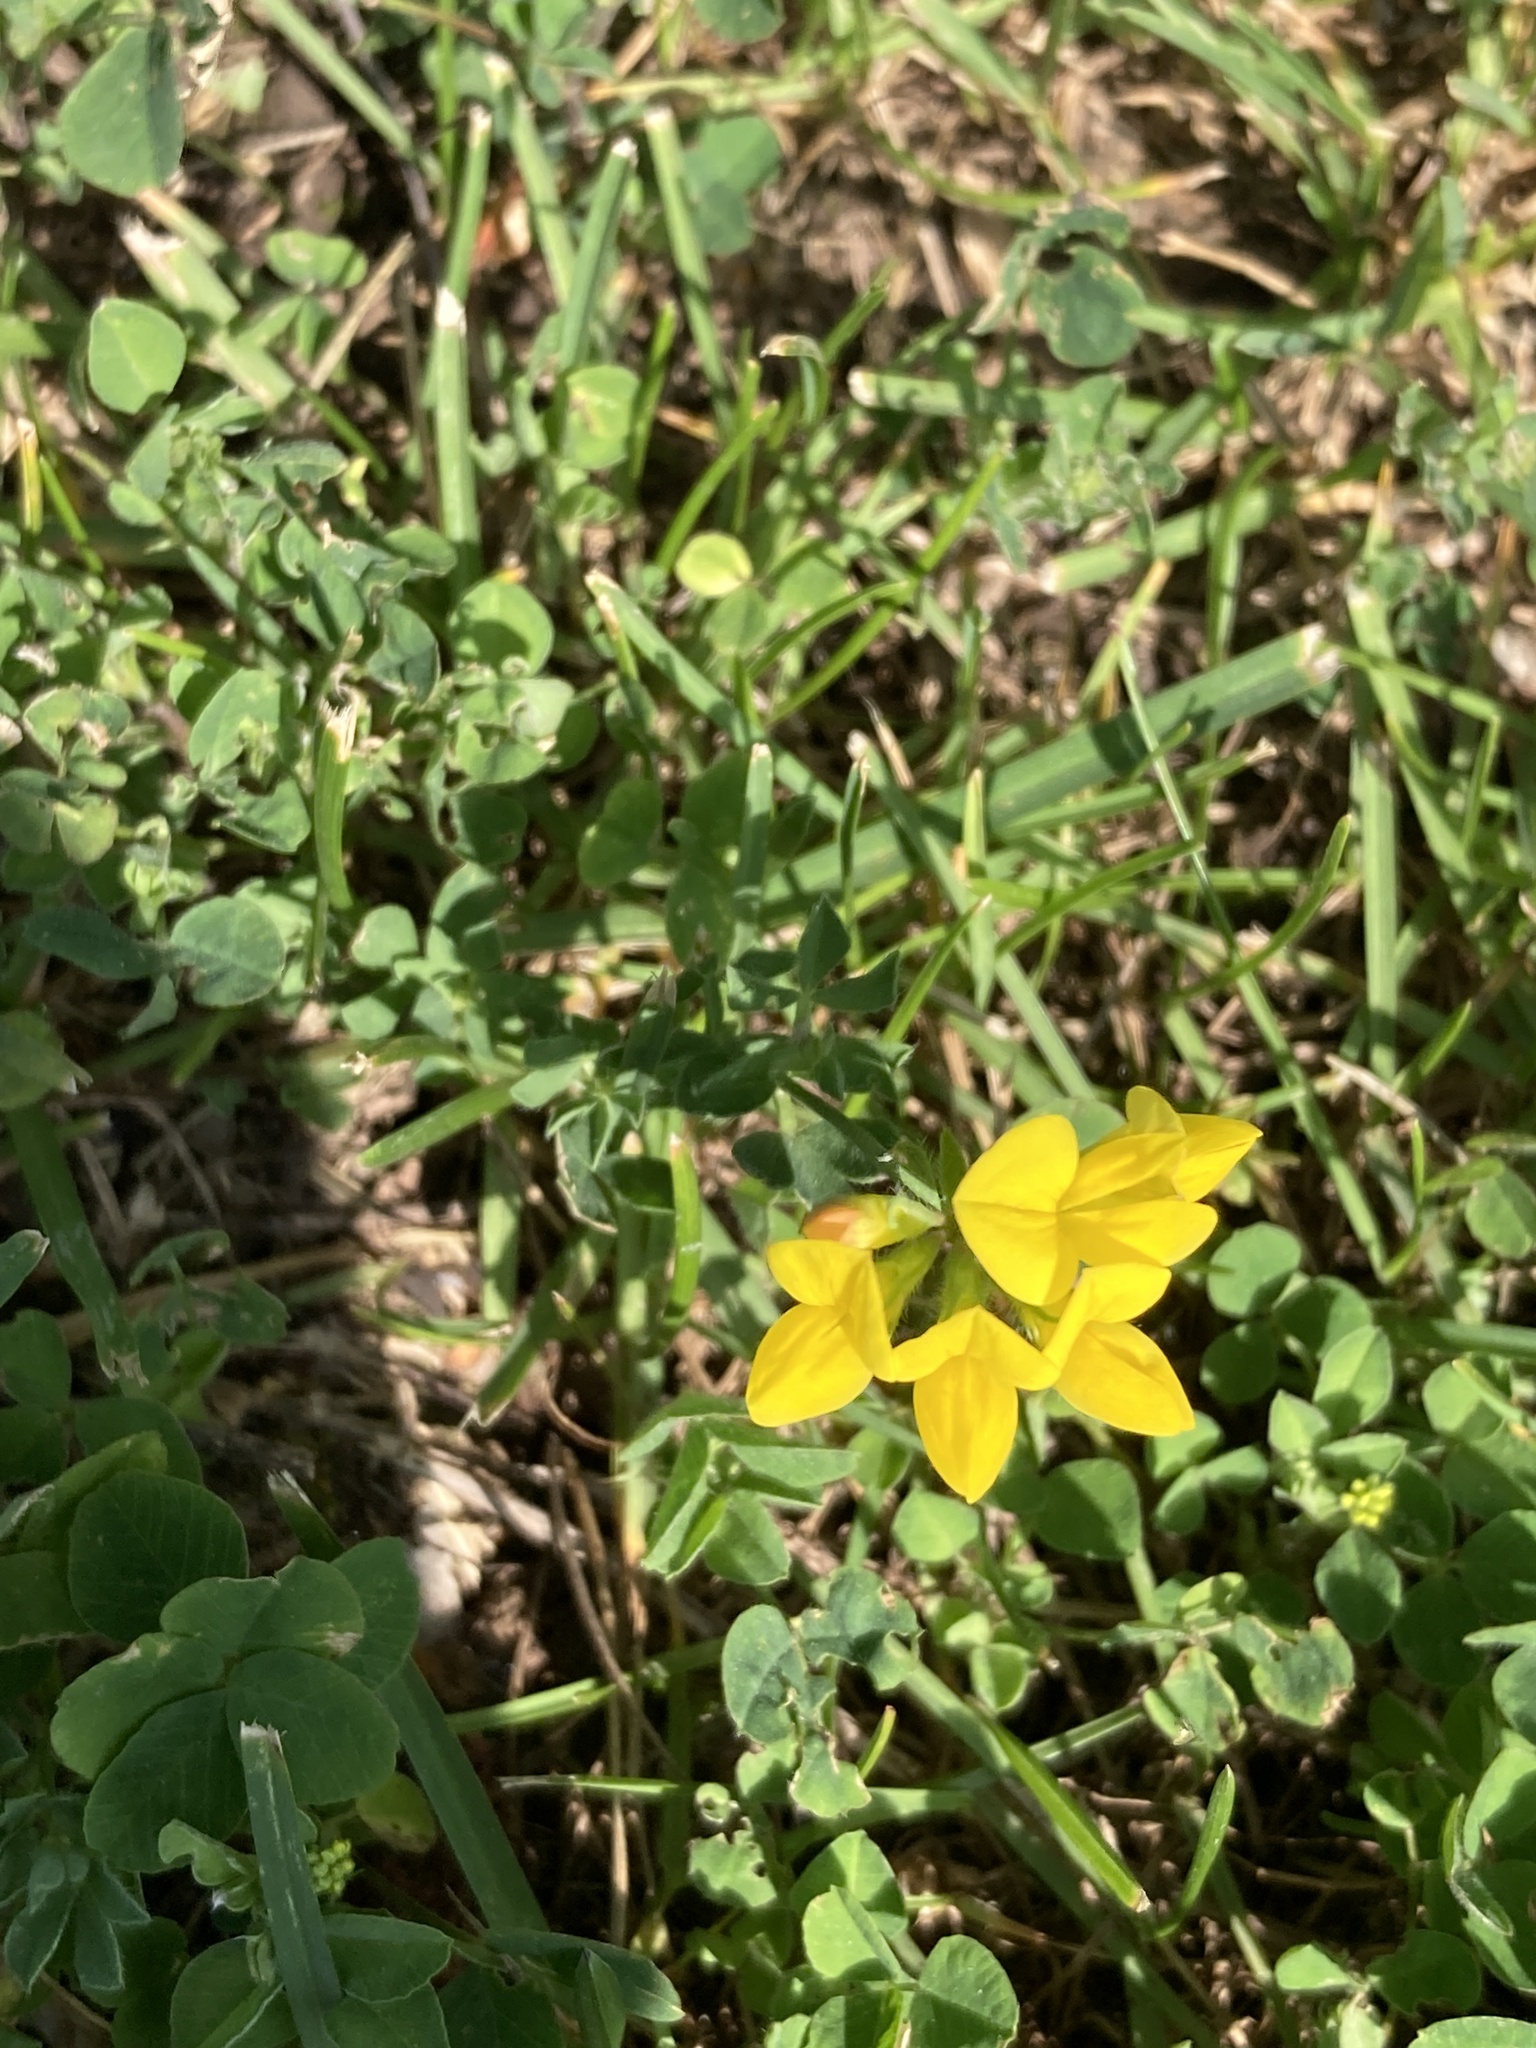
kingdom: Plantae
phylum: Tracheophyta
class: Magnoliopsida
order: Fabales
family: Fabaceae
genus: Lotus
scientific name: Lotus corniculatus
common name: Common bird's-foot-trefoil
